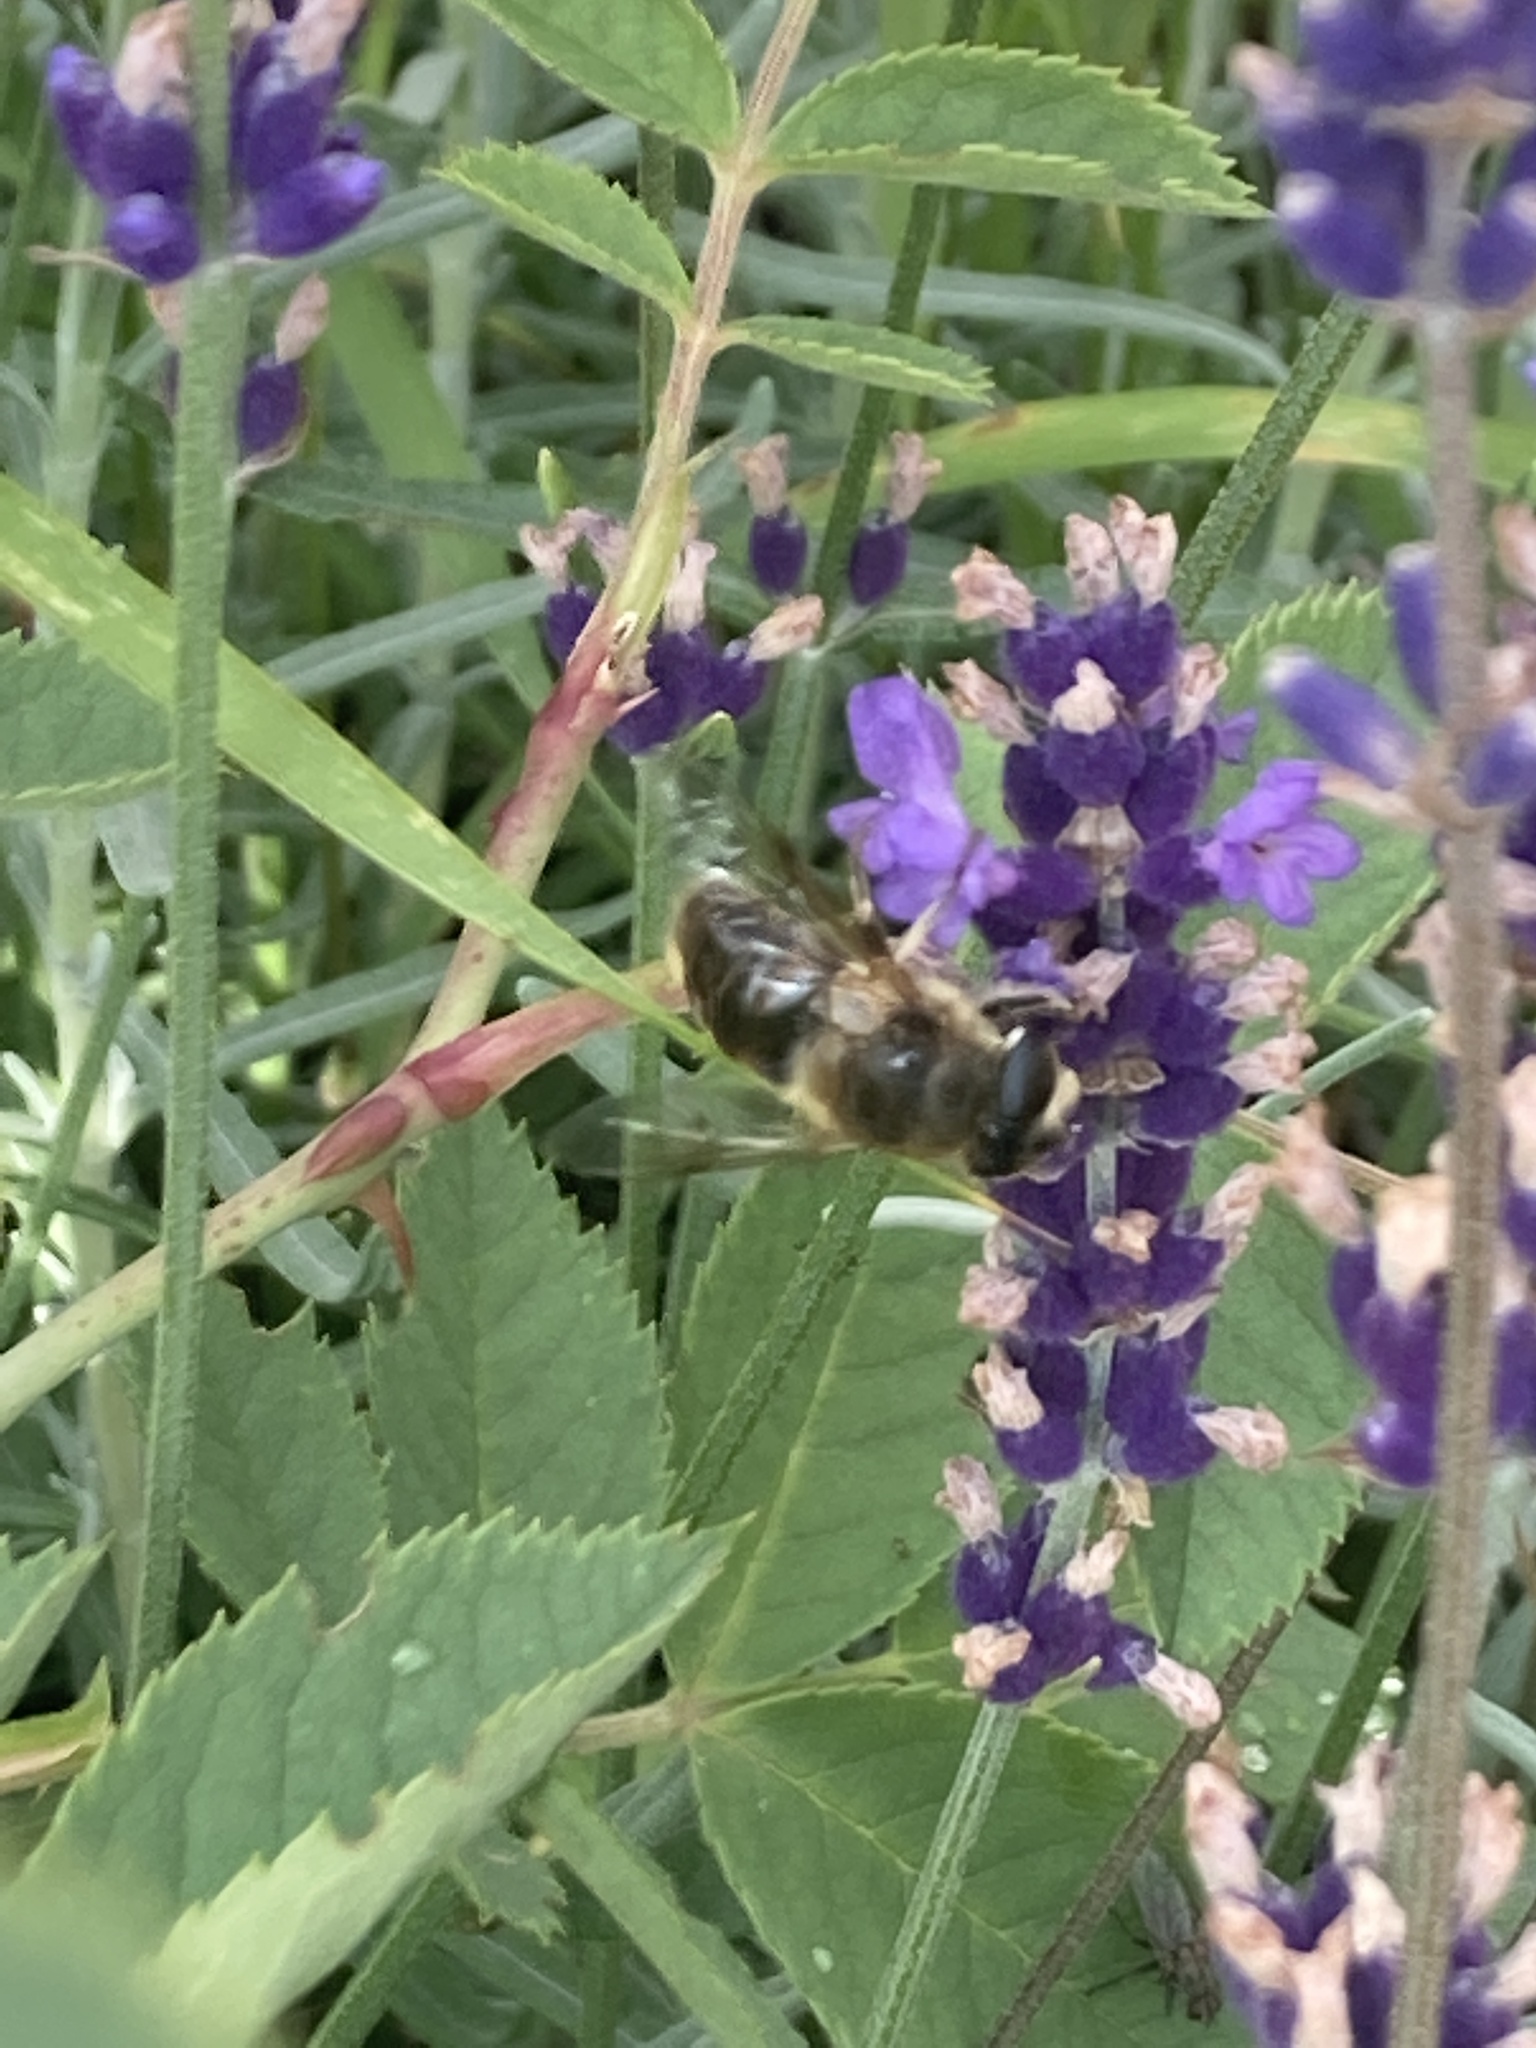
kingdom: Animalia
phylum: Arthropoda
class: Insecta
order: Diptera
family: Syrphidae
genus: Eristalis
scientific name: Eristalis tenax
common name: Drone fly
